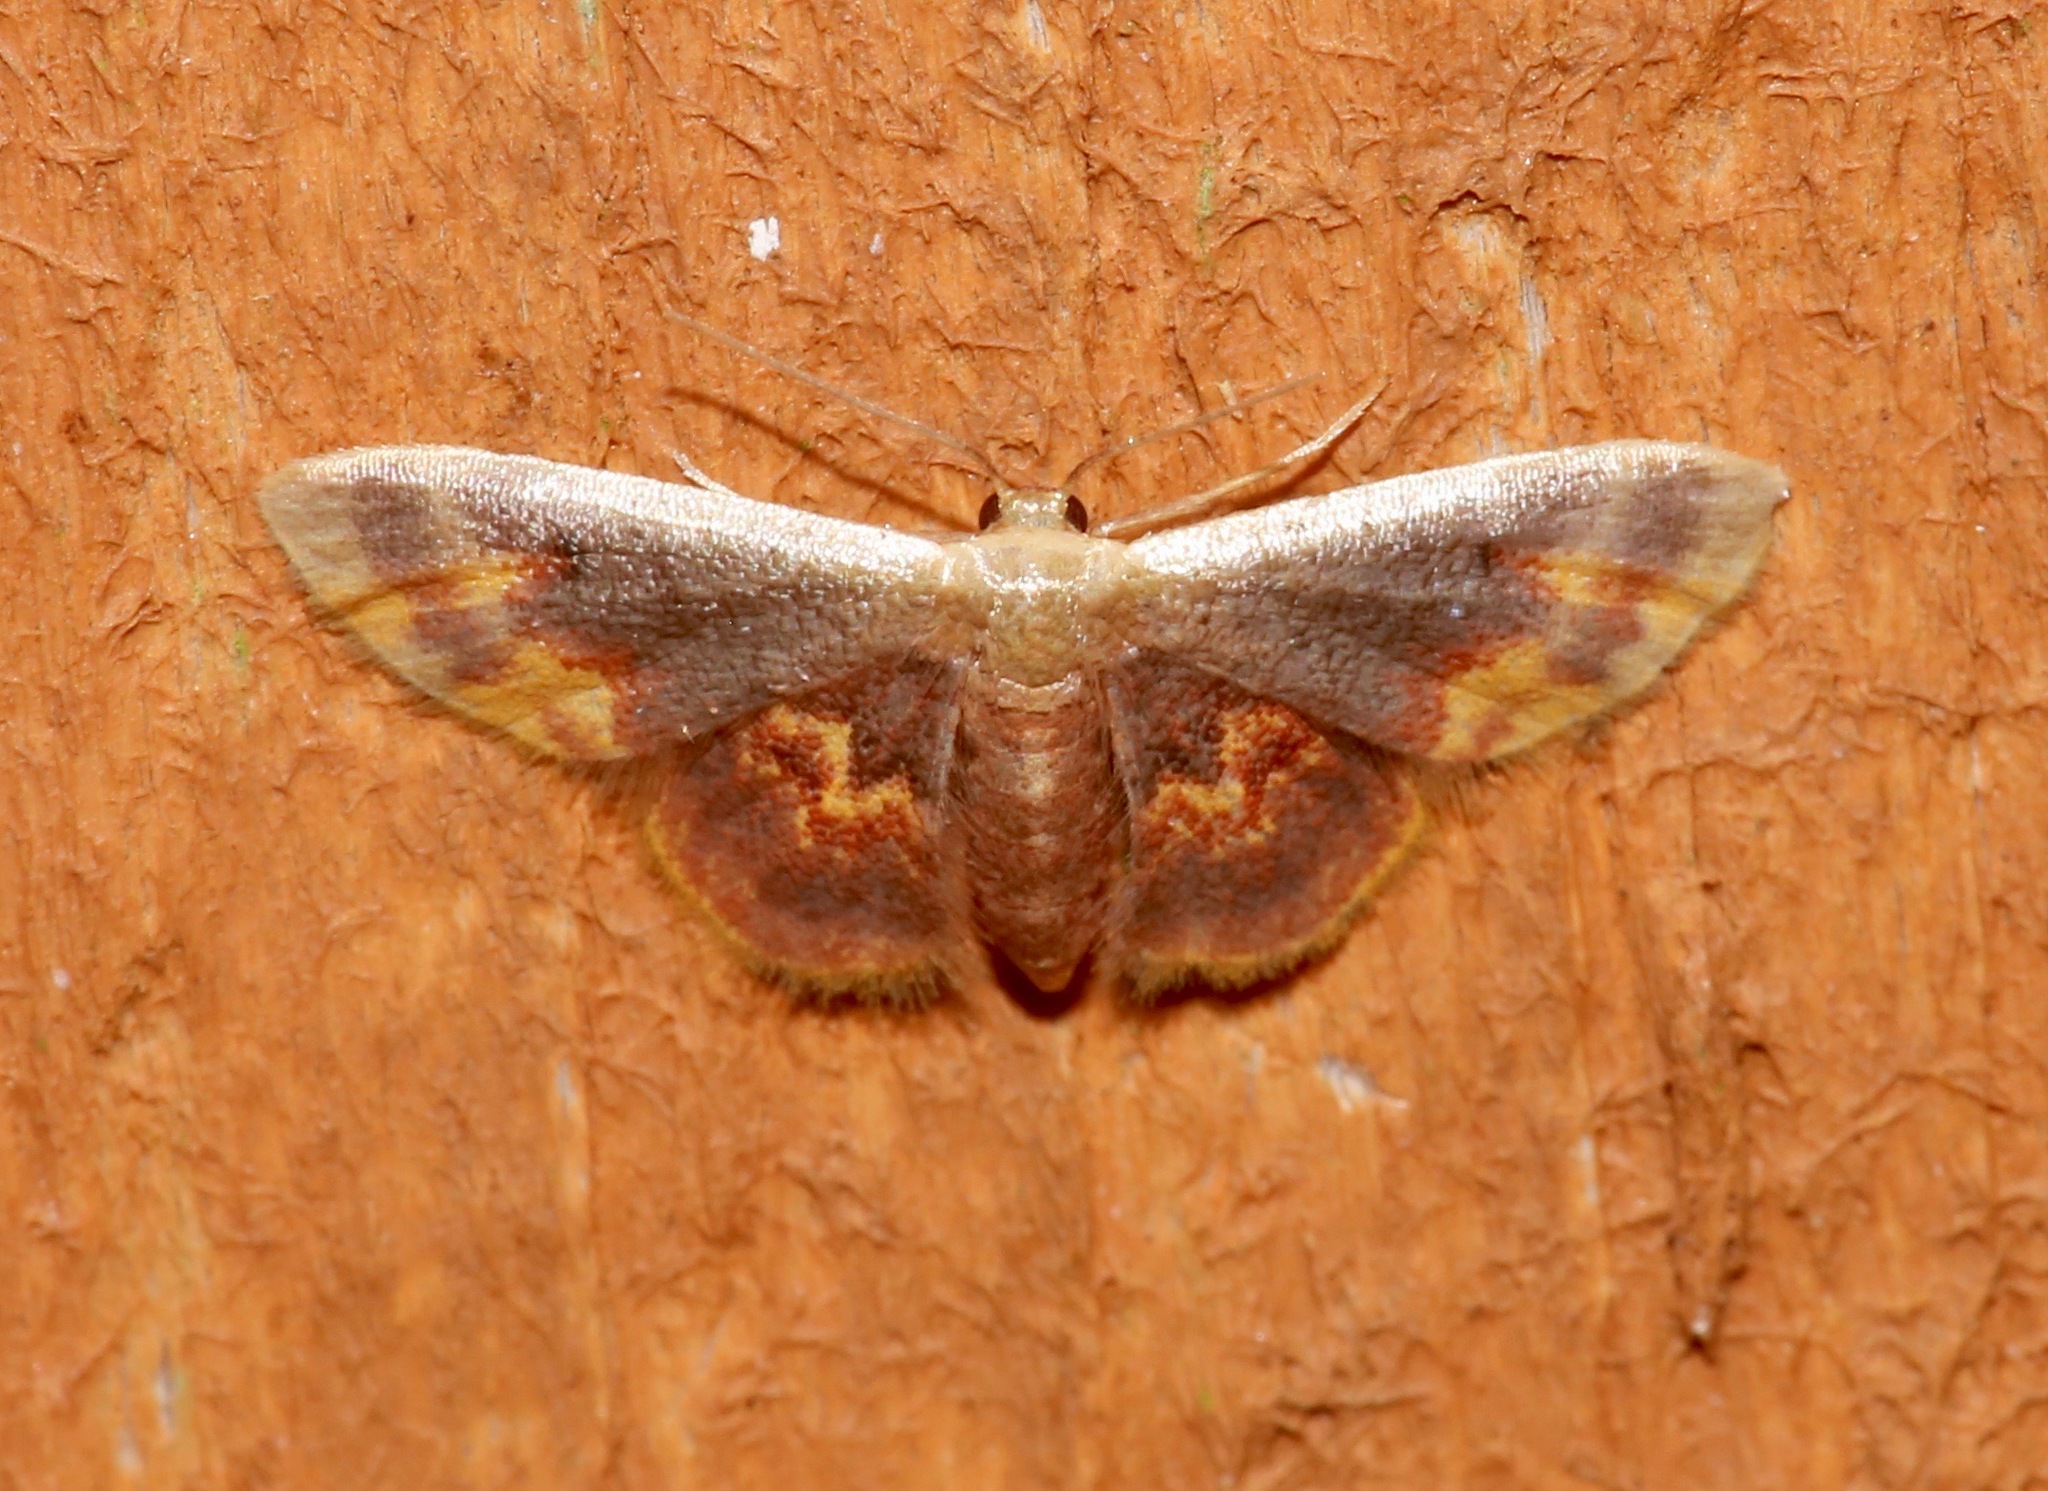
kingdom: Animalia
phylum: Arthropoda
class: Insecta
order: Lepidoptera
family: Geometridae
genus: Idaea
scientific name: Idaea scintillularia
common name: Diminutive wave
